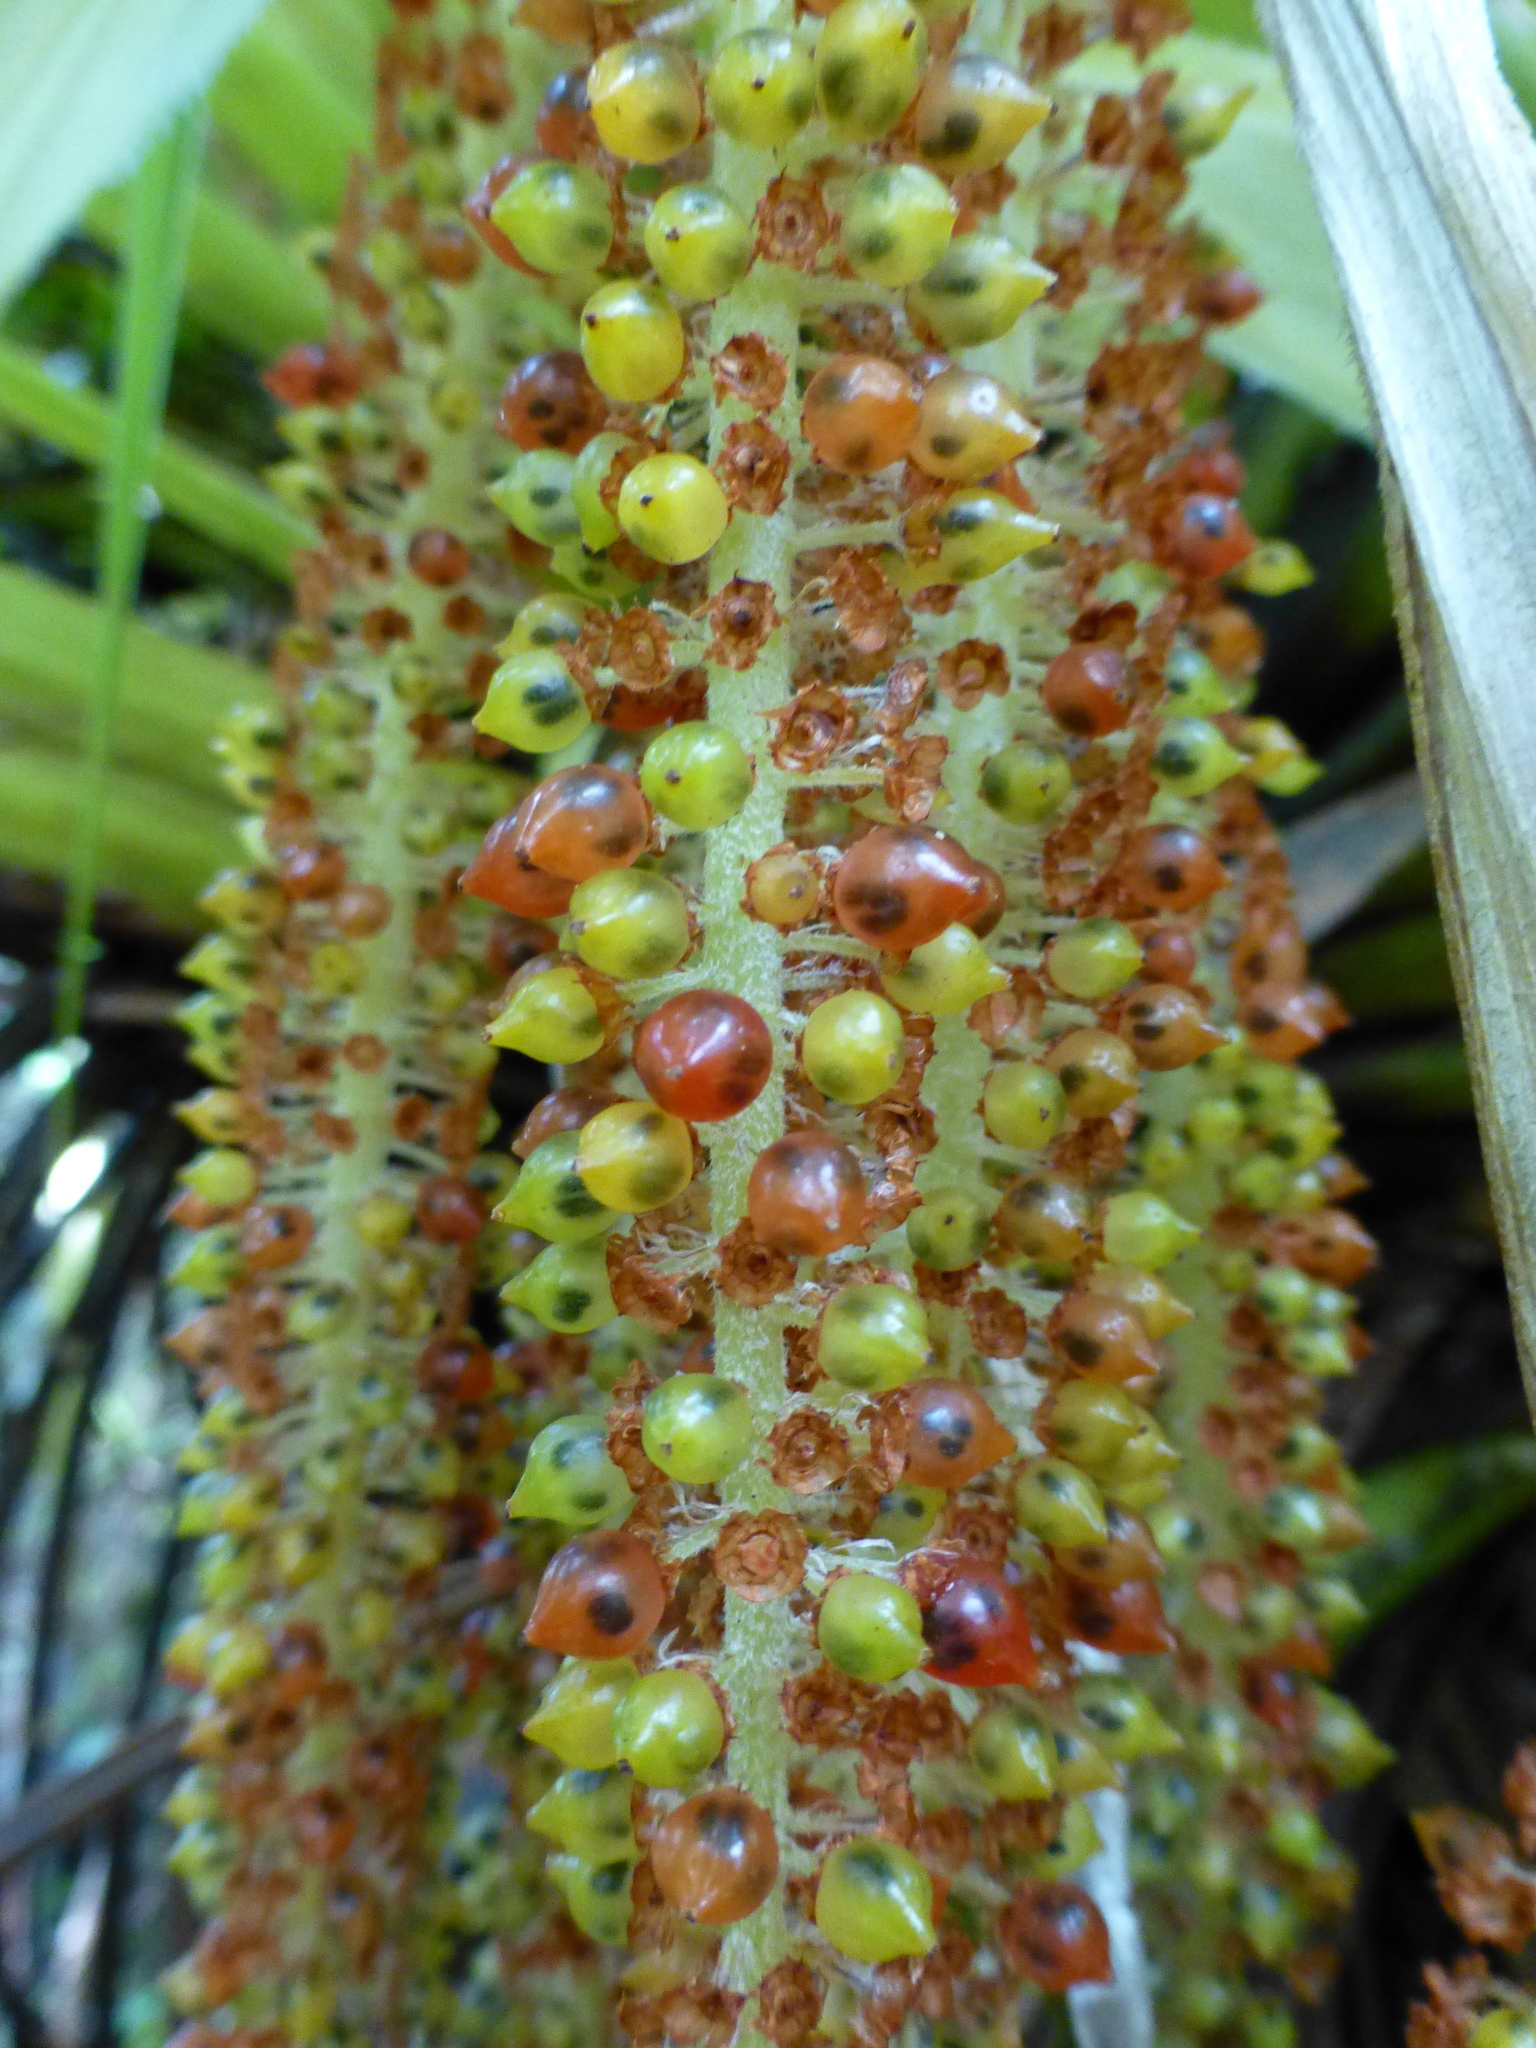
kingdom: Plantae
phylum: Tracheophyta
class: Liliopsida
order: Asparagales
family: Asteliaceae
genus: Astelia
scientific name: Astelia hastata
